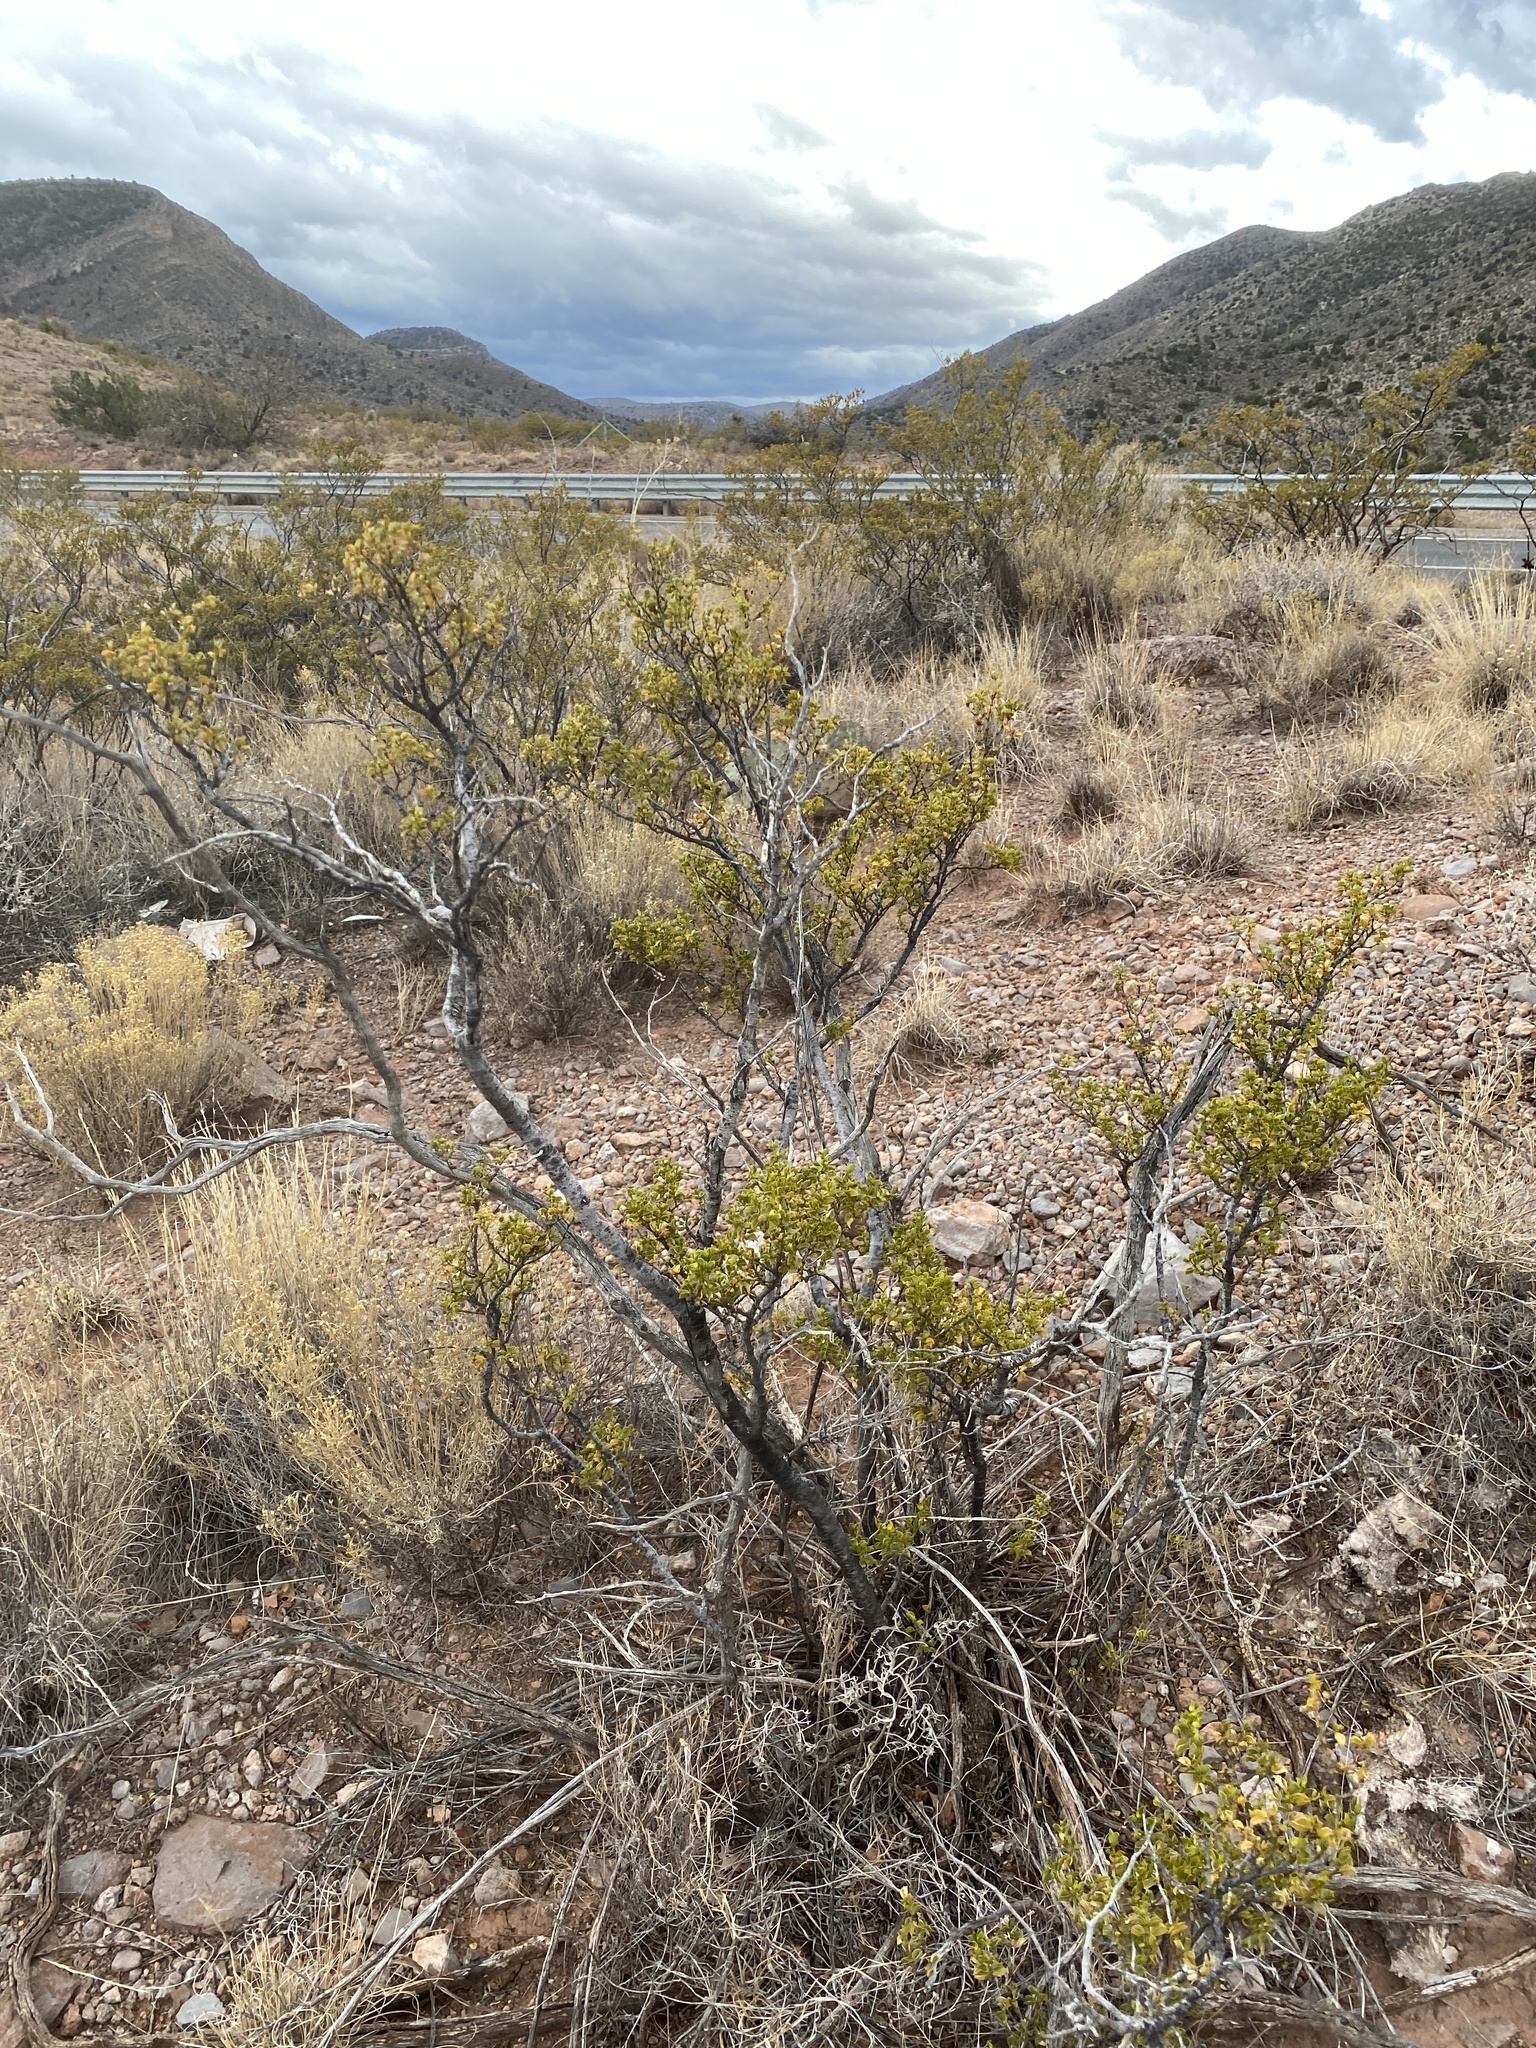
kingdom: Plantae
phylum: Tracheophyta
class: Magnoliopsida
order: Zygophyllales
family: Zygophyllaceae
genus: Larrea
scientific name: Larrea tridentata
